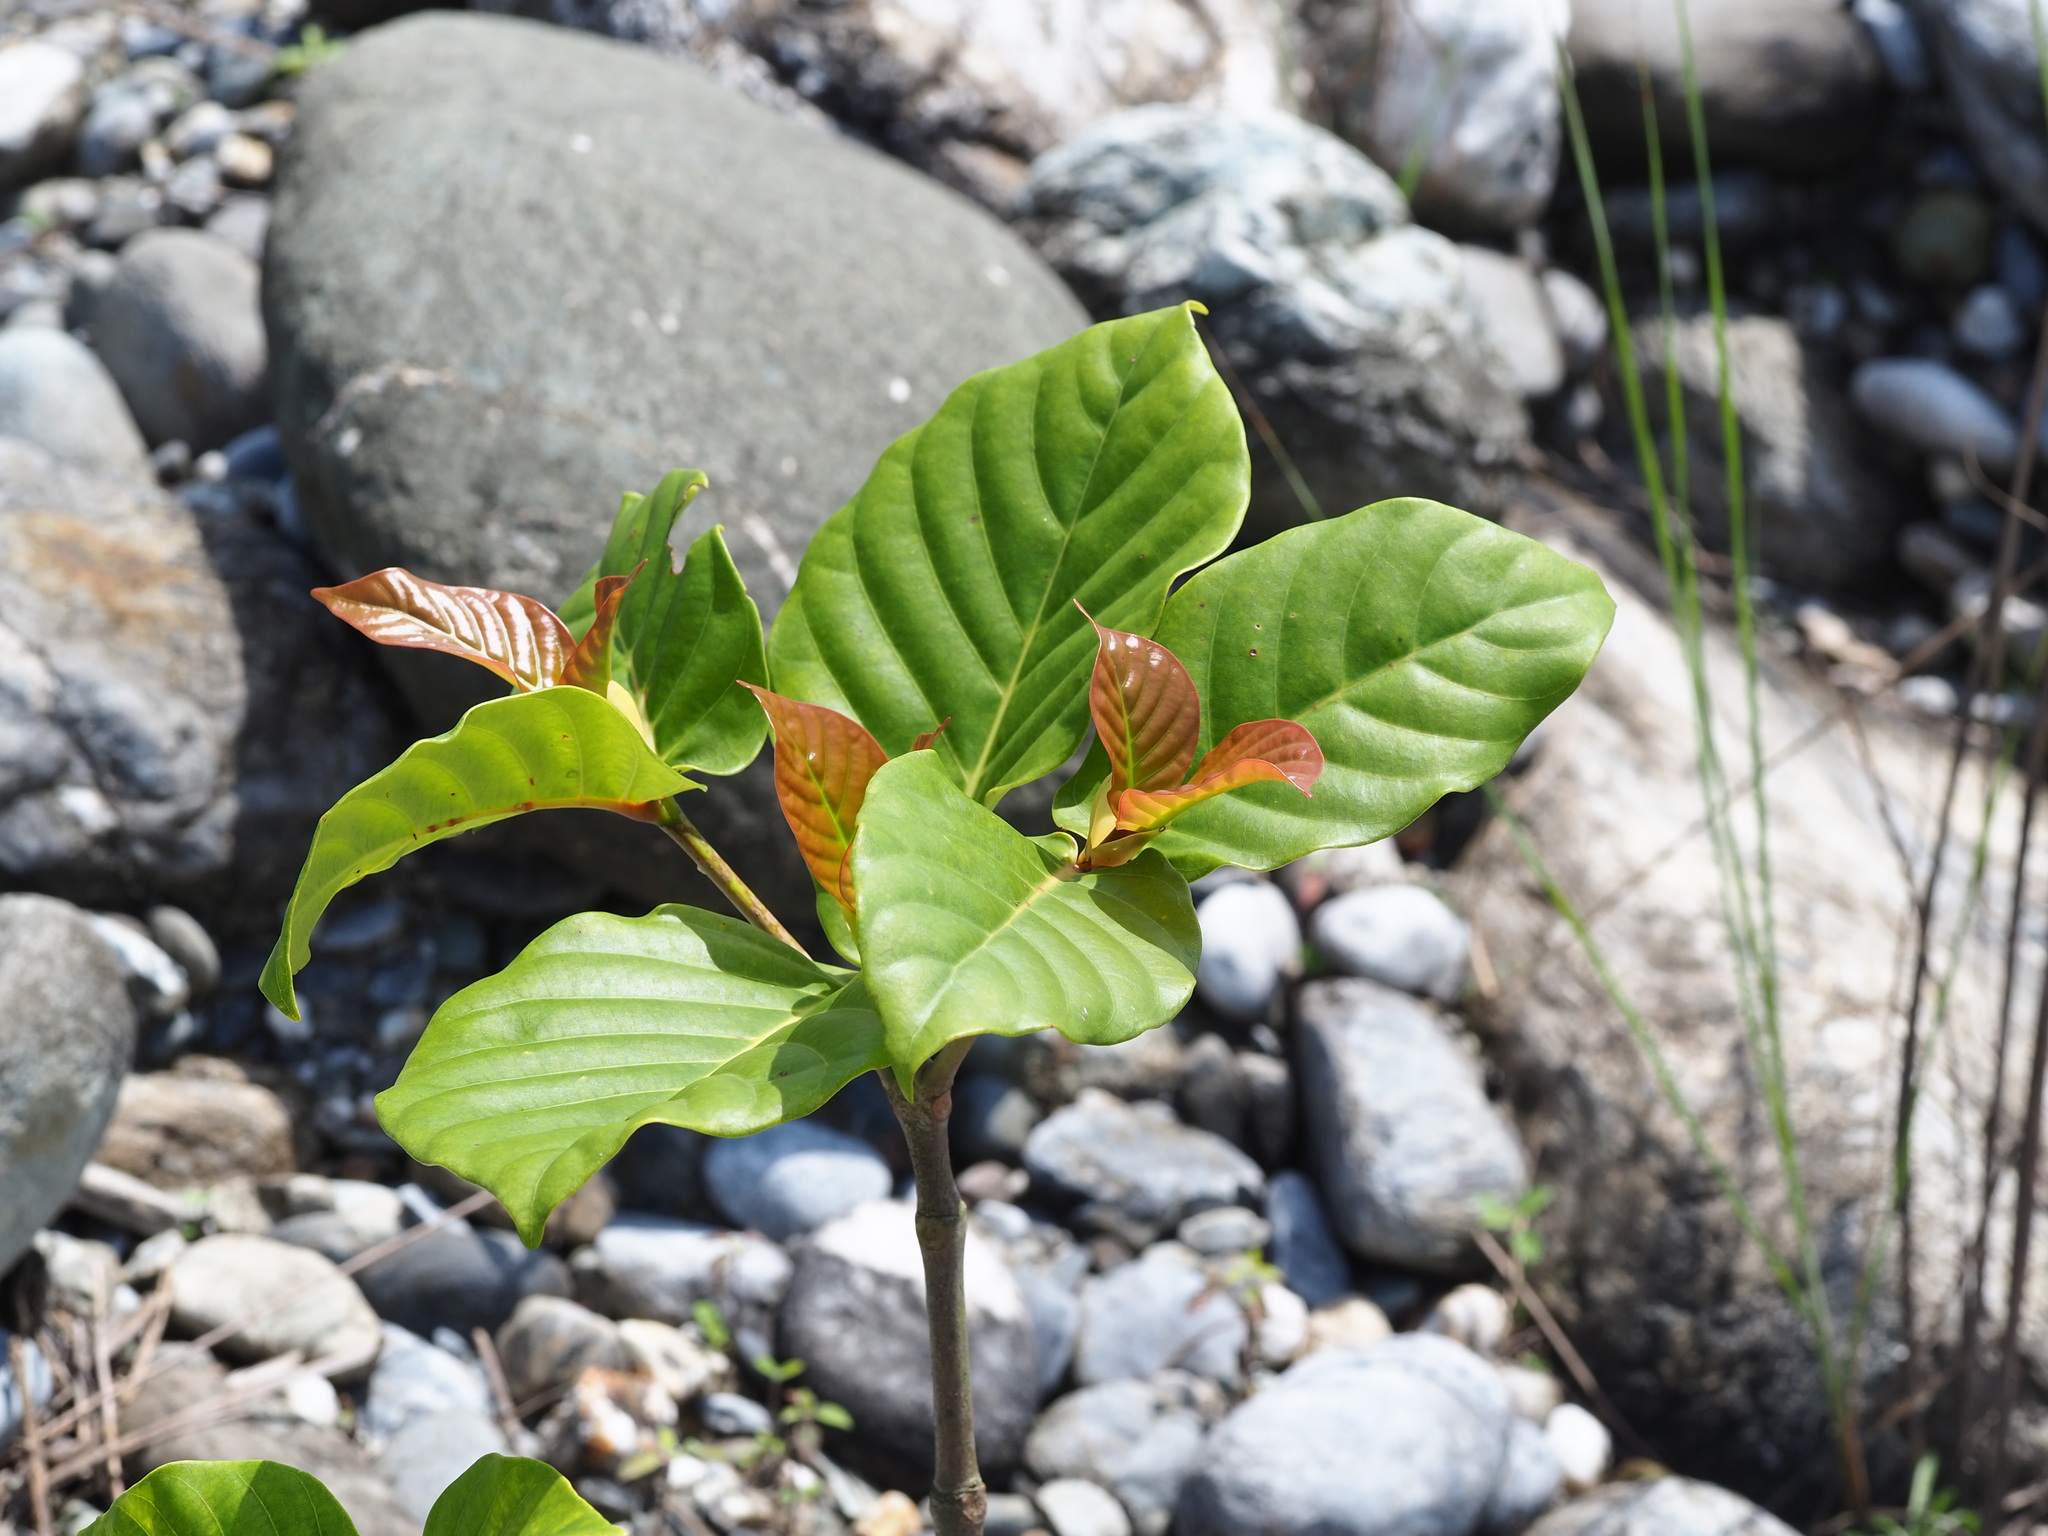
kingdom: Plantae
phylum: Tracheophyta
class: Magnoliopsida
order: Gentianales
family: Rubiaceae
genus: Neonauclea
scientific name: Neonauclea reticulata
